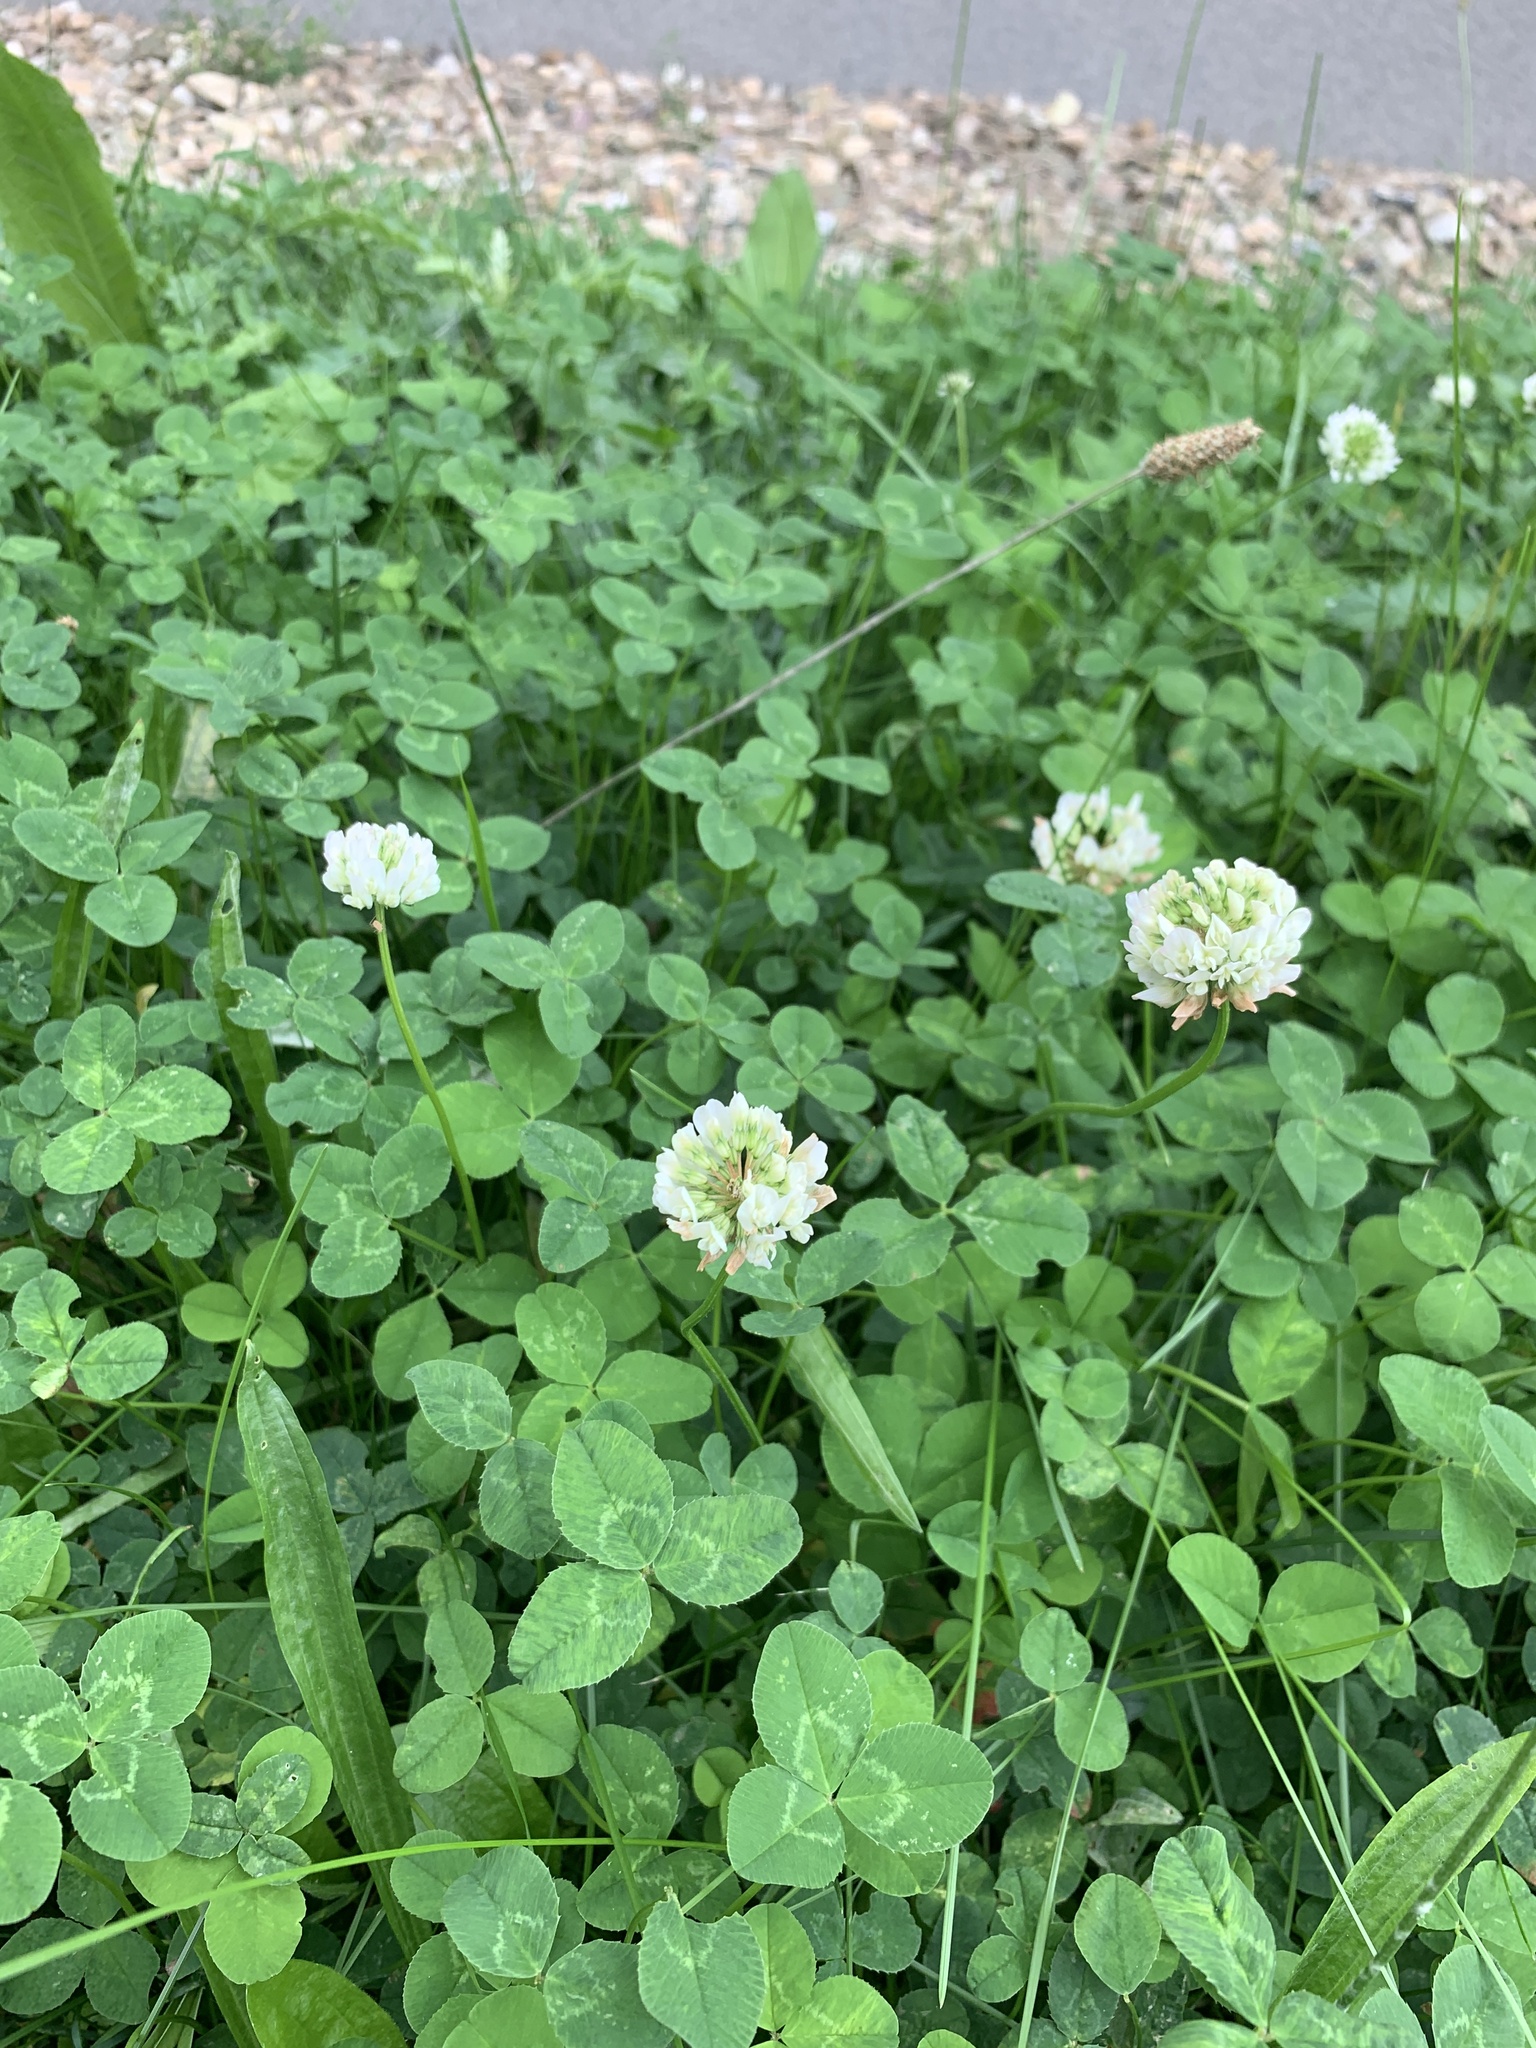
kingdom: Plantae
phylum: Tracheophyta
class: Magnoliopsida
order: Fabales
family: Fabaceae
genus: Trifolium
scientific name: Trifolium repens
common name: White clover
